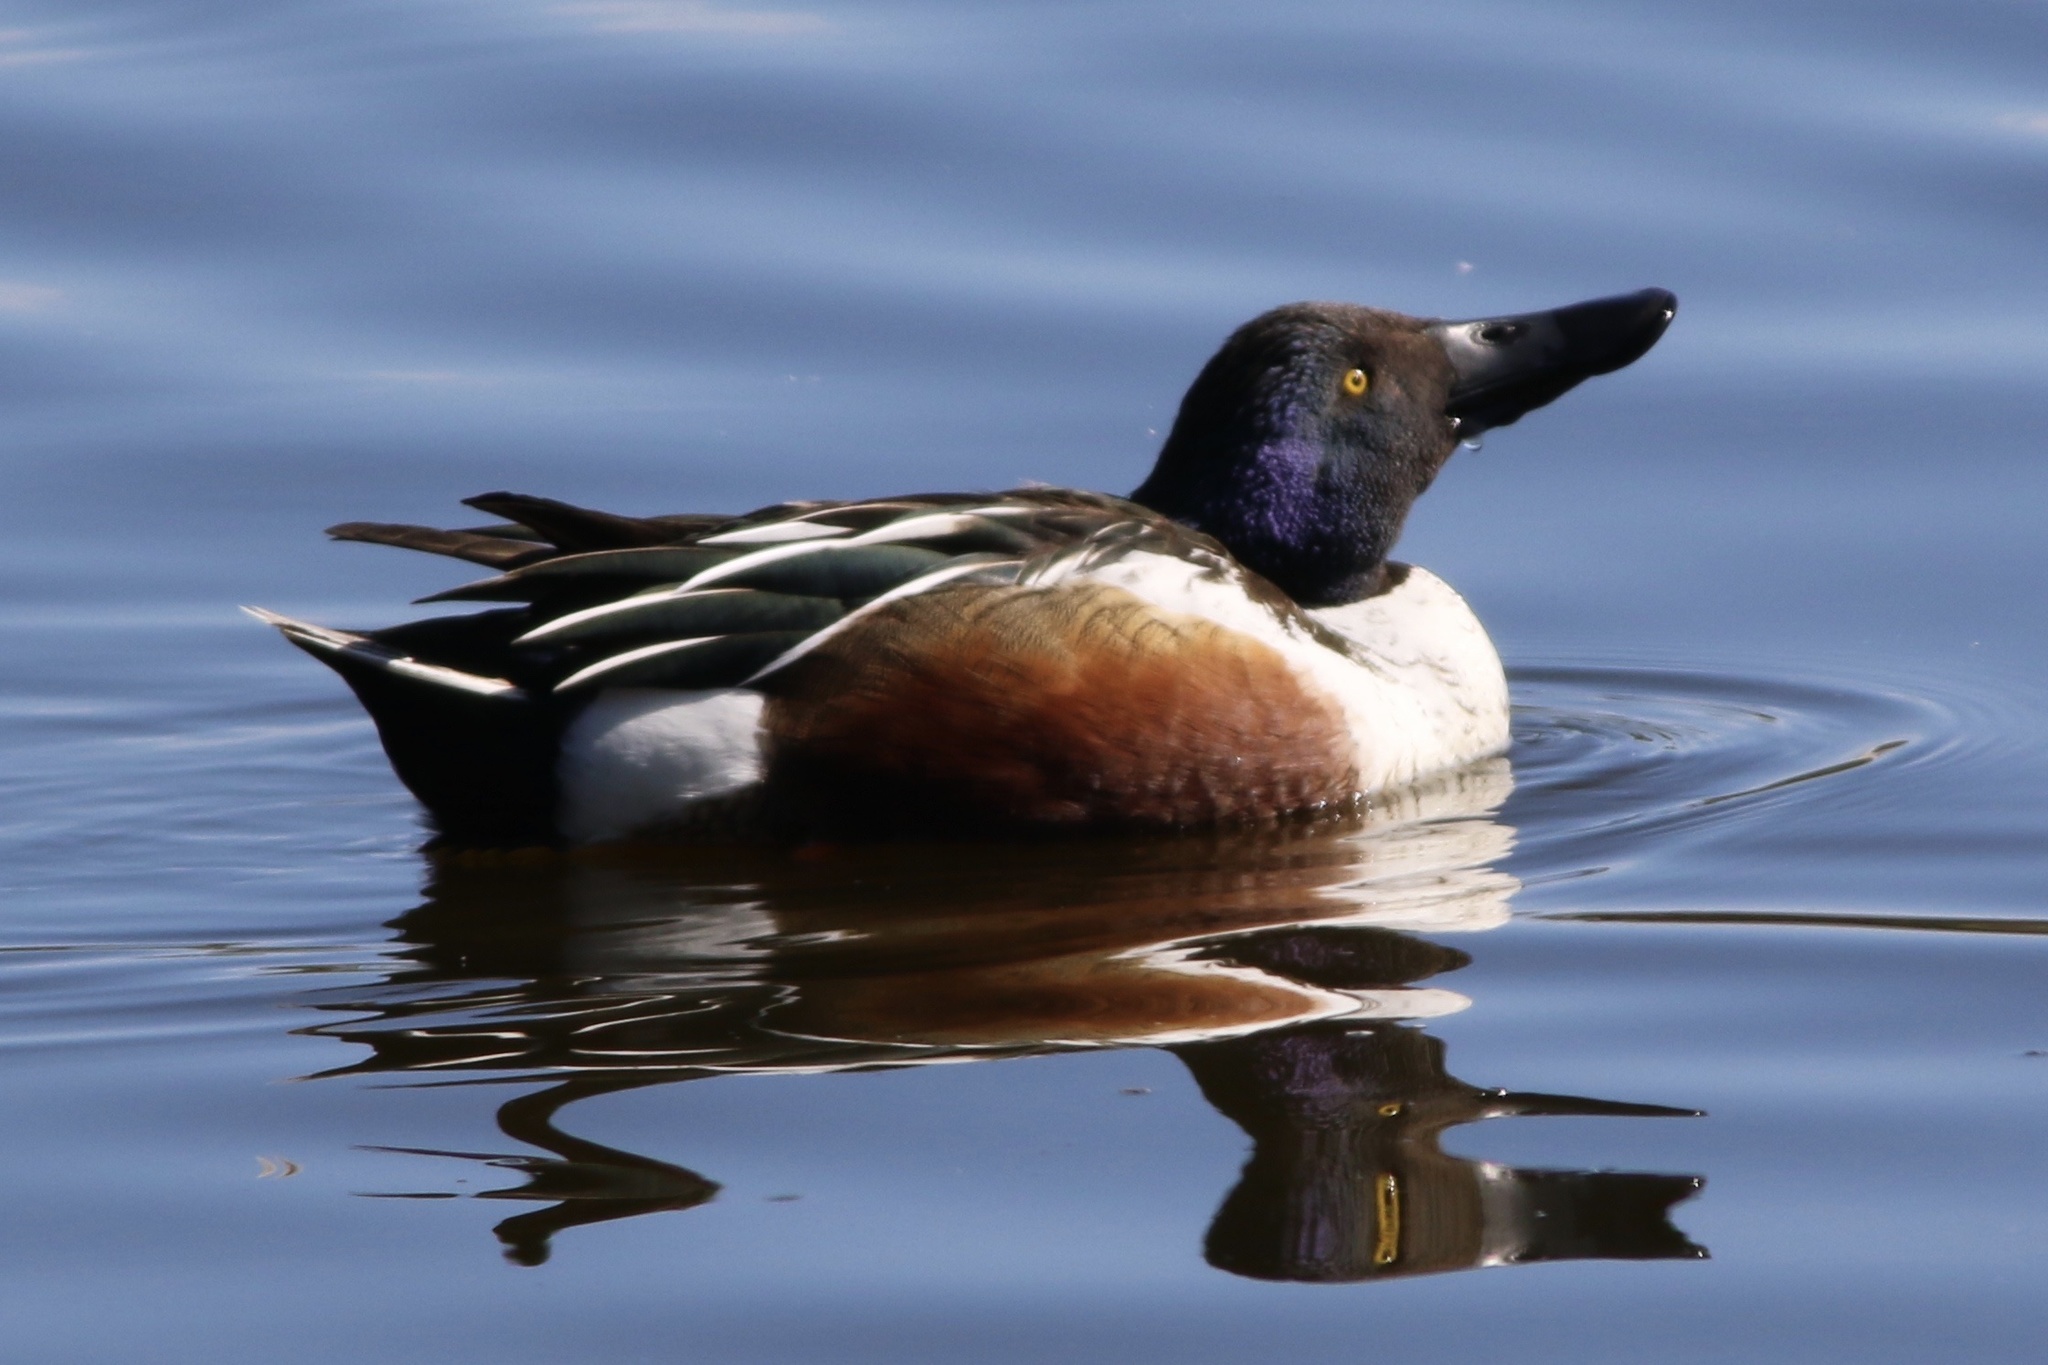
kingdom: Animalia
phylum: Chordata
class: Aves
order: Anseriformes
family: Anatidae
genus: Spatula
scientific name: Spatula clypeata
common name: Northern shoveler
